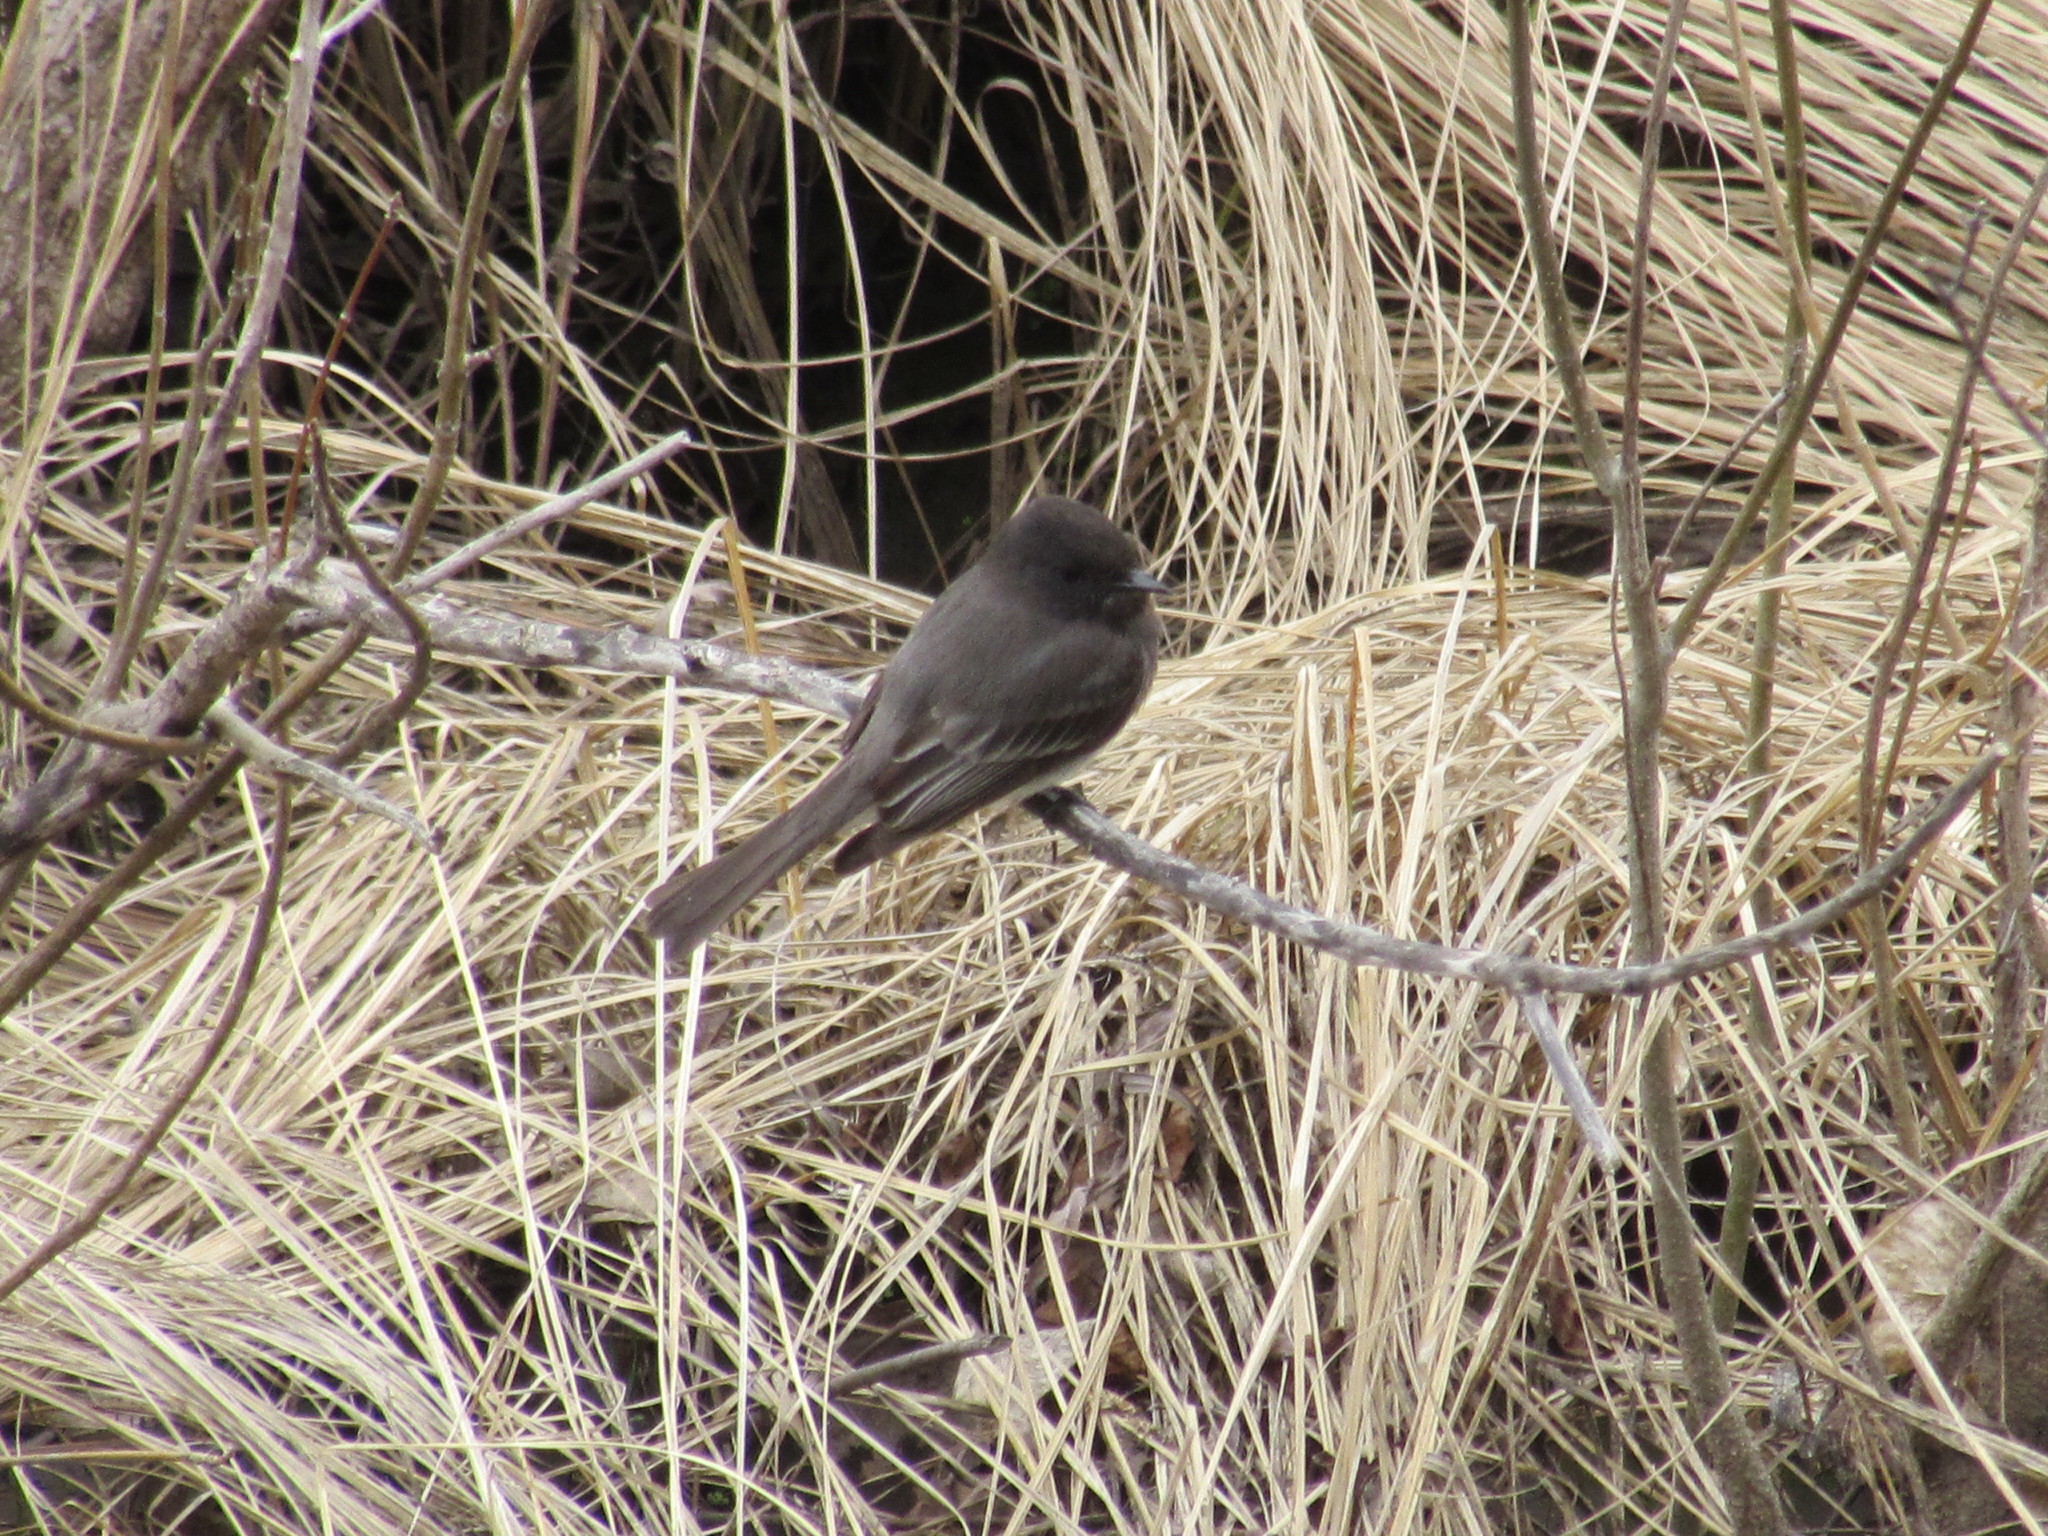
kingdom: Animalia
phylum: Chordata
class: Aves
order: Passeriformes
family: Tyrannidae
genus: Sayornis
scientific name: Sayornis nigricans
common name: Black phoebe
